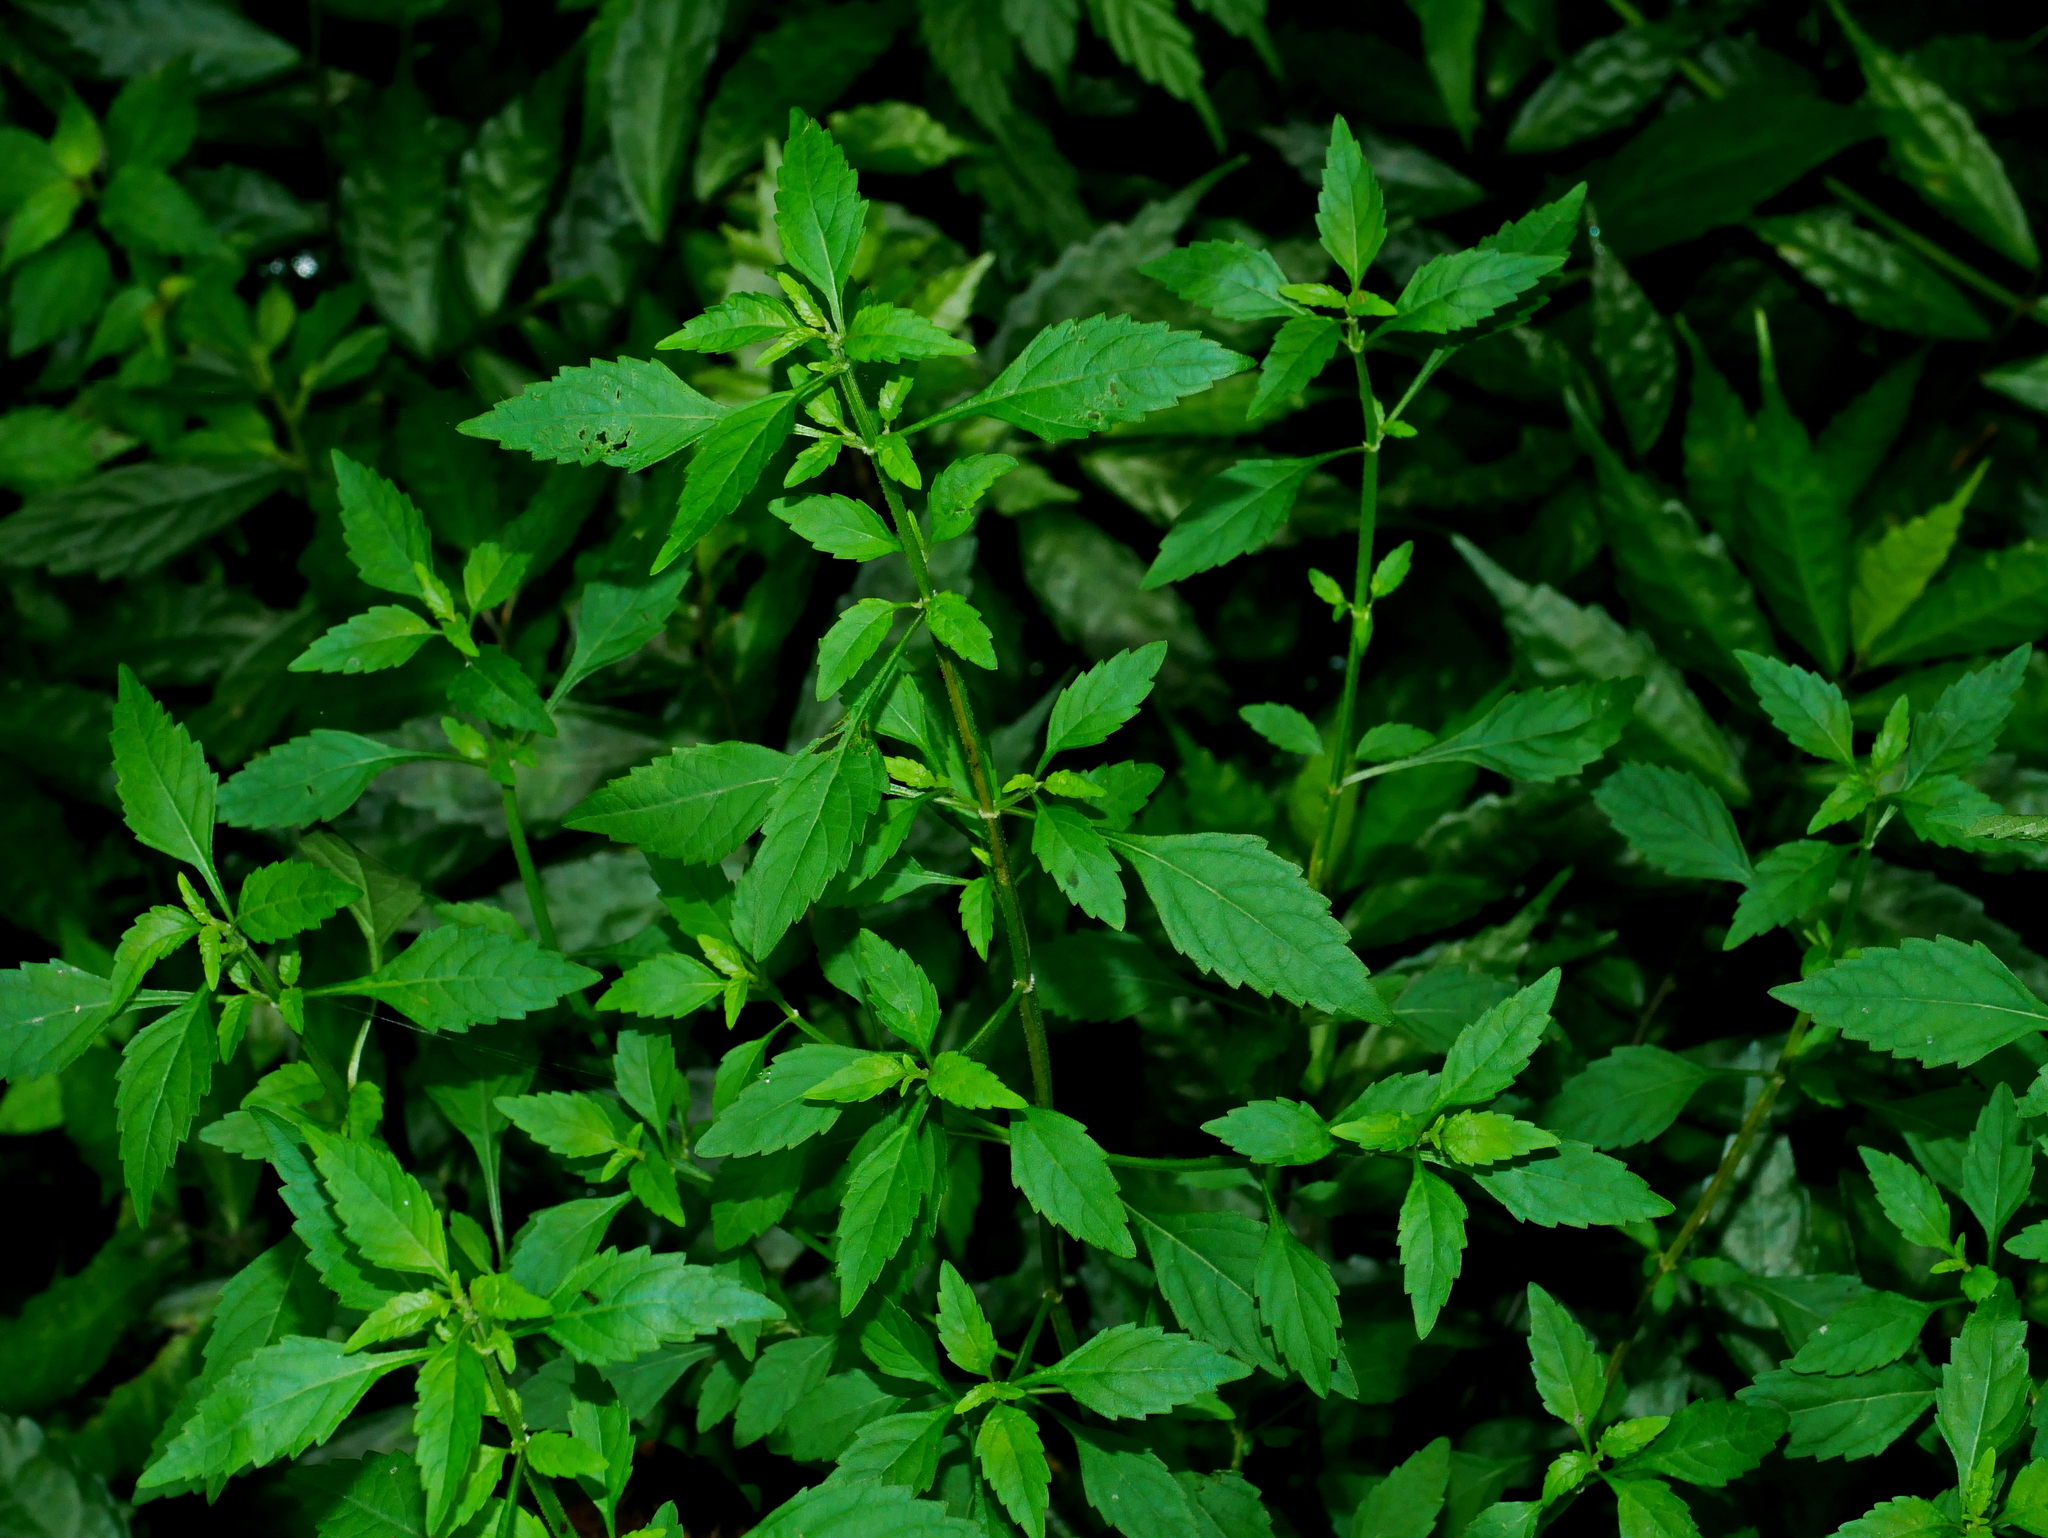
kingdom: Plantae
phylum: Tracheophyta
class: Magnoliopsida
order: Lamiales
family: Lamiaceae
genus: Mosla
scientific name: Mosla dianthera
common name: Miniature beefsteakplant
